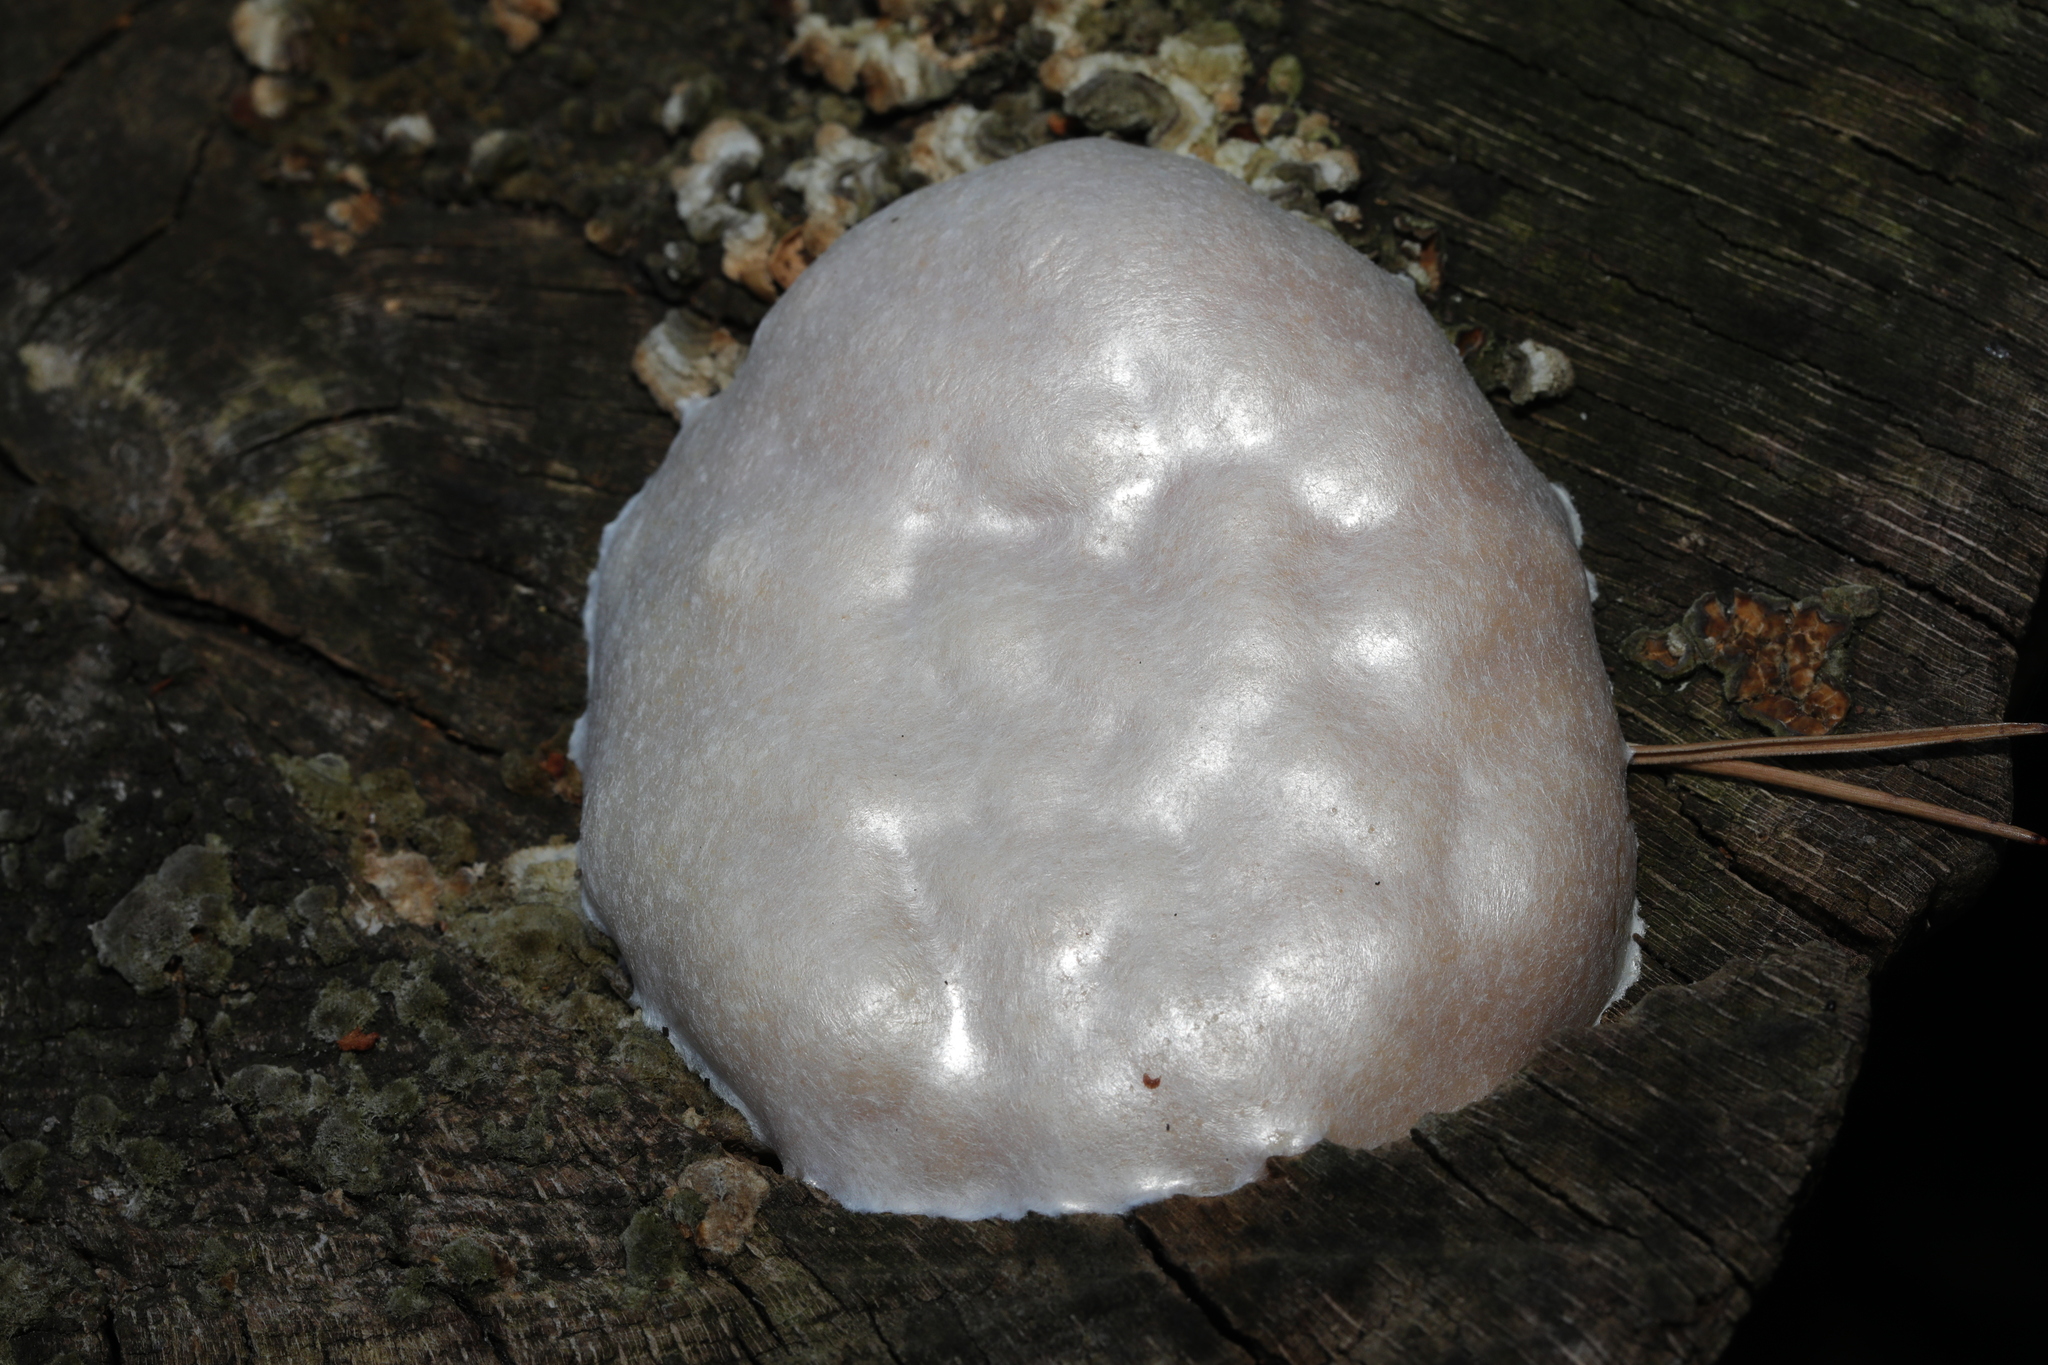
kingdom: Protozoa
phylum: Mycetozoa
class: Myxomycetes
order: Cribrariales
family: Tubiferaceae
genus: Reticularia
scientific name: Reticularia lycoperdon
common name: False puffball
